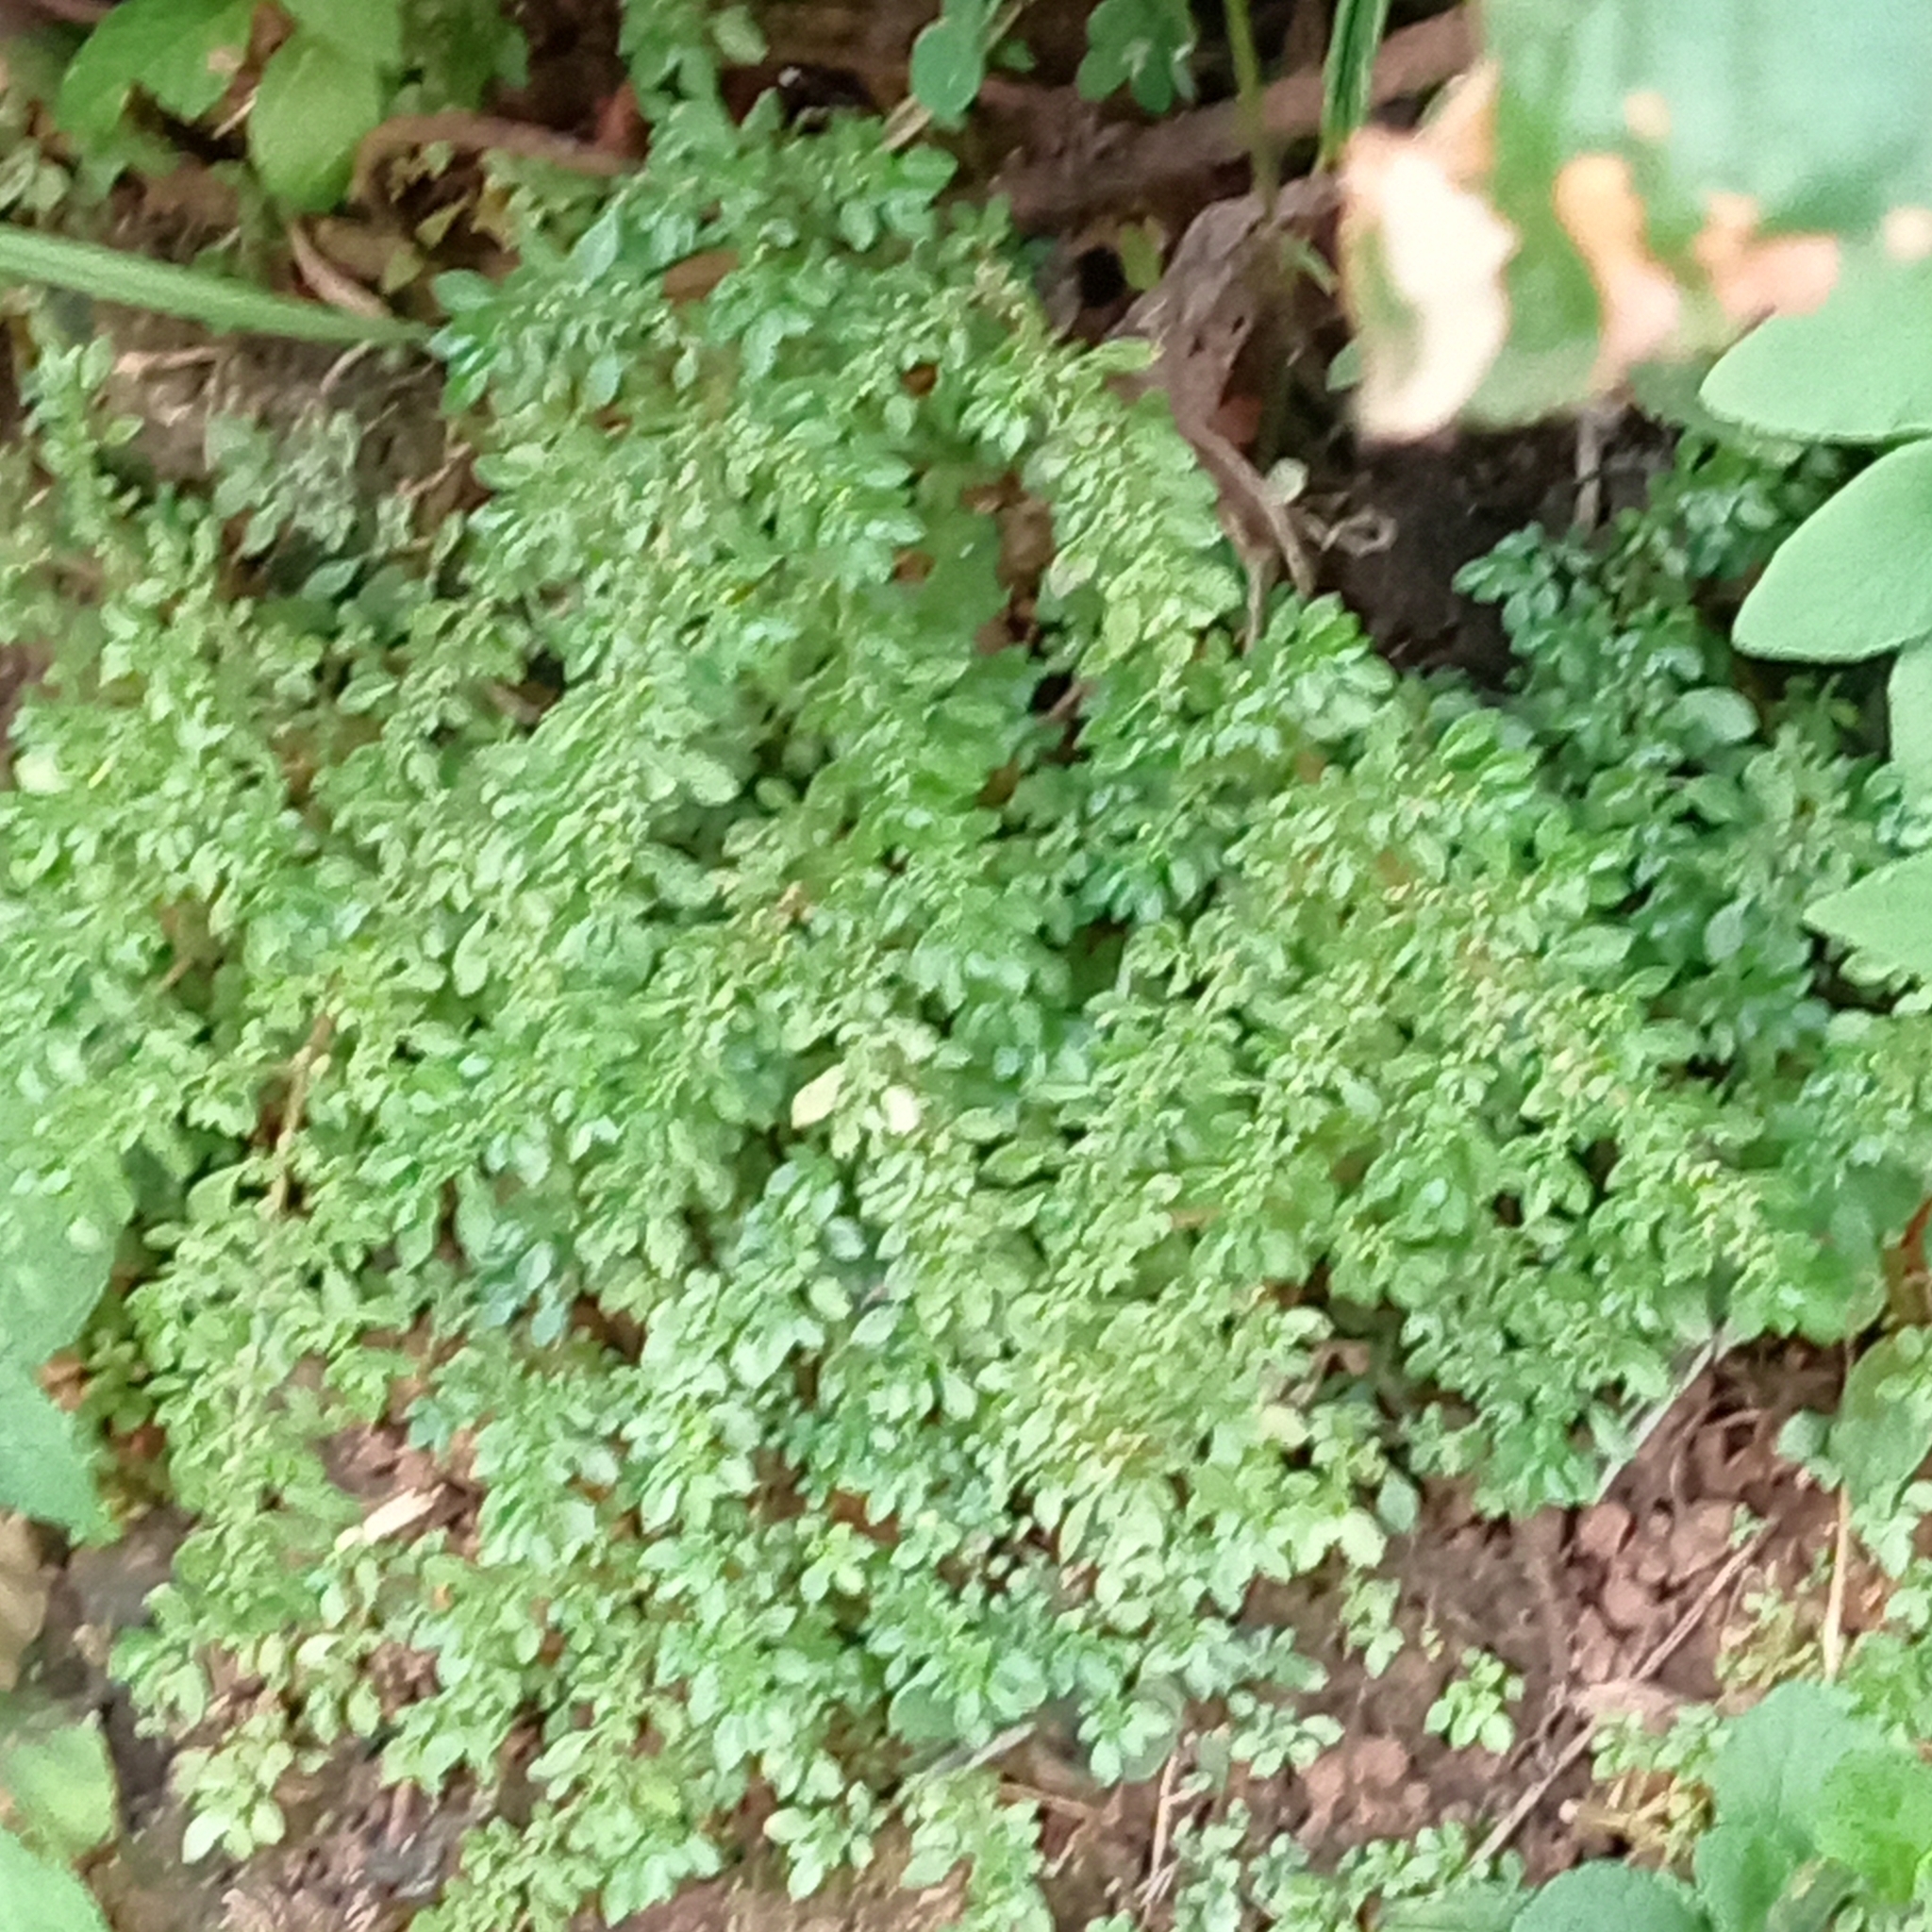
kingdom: Plantae
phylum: Tracheophyta
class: Magnoliopsida
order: Rosales
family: Urticaceae
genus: Pilea
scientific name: Pilea microphylla
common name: Artillery-plant
